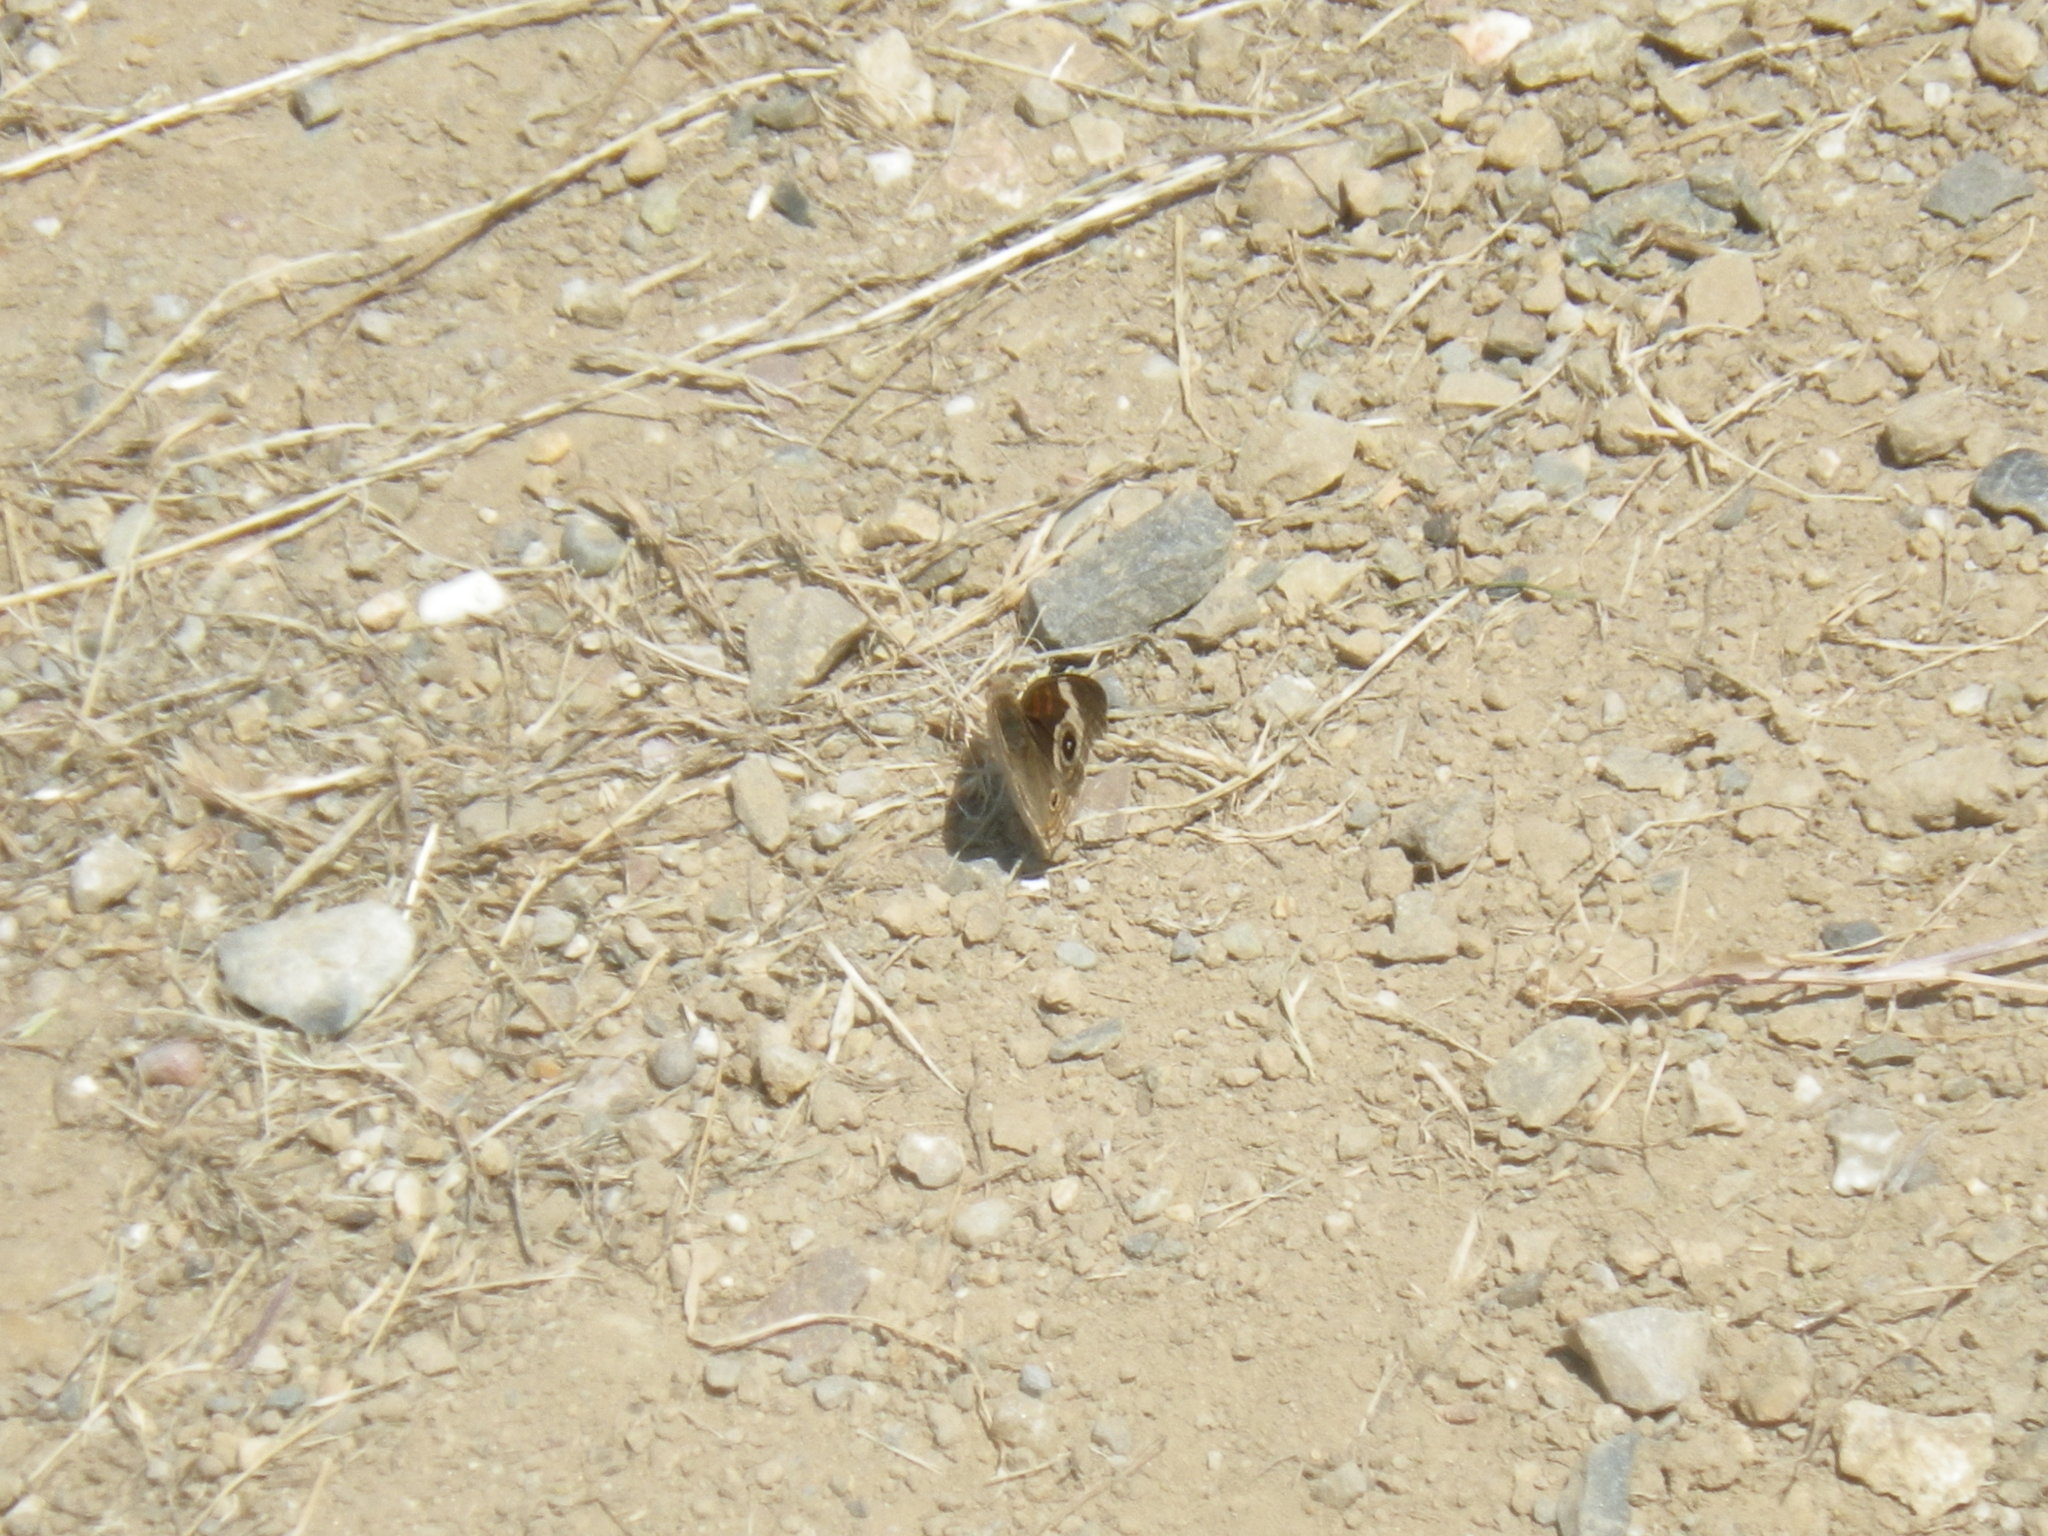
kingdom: Animalia
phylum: Arthropoda
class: Insecta
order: Lepidoptera
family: Nymphalidae
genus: Junonia
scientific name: Junonia grisea
